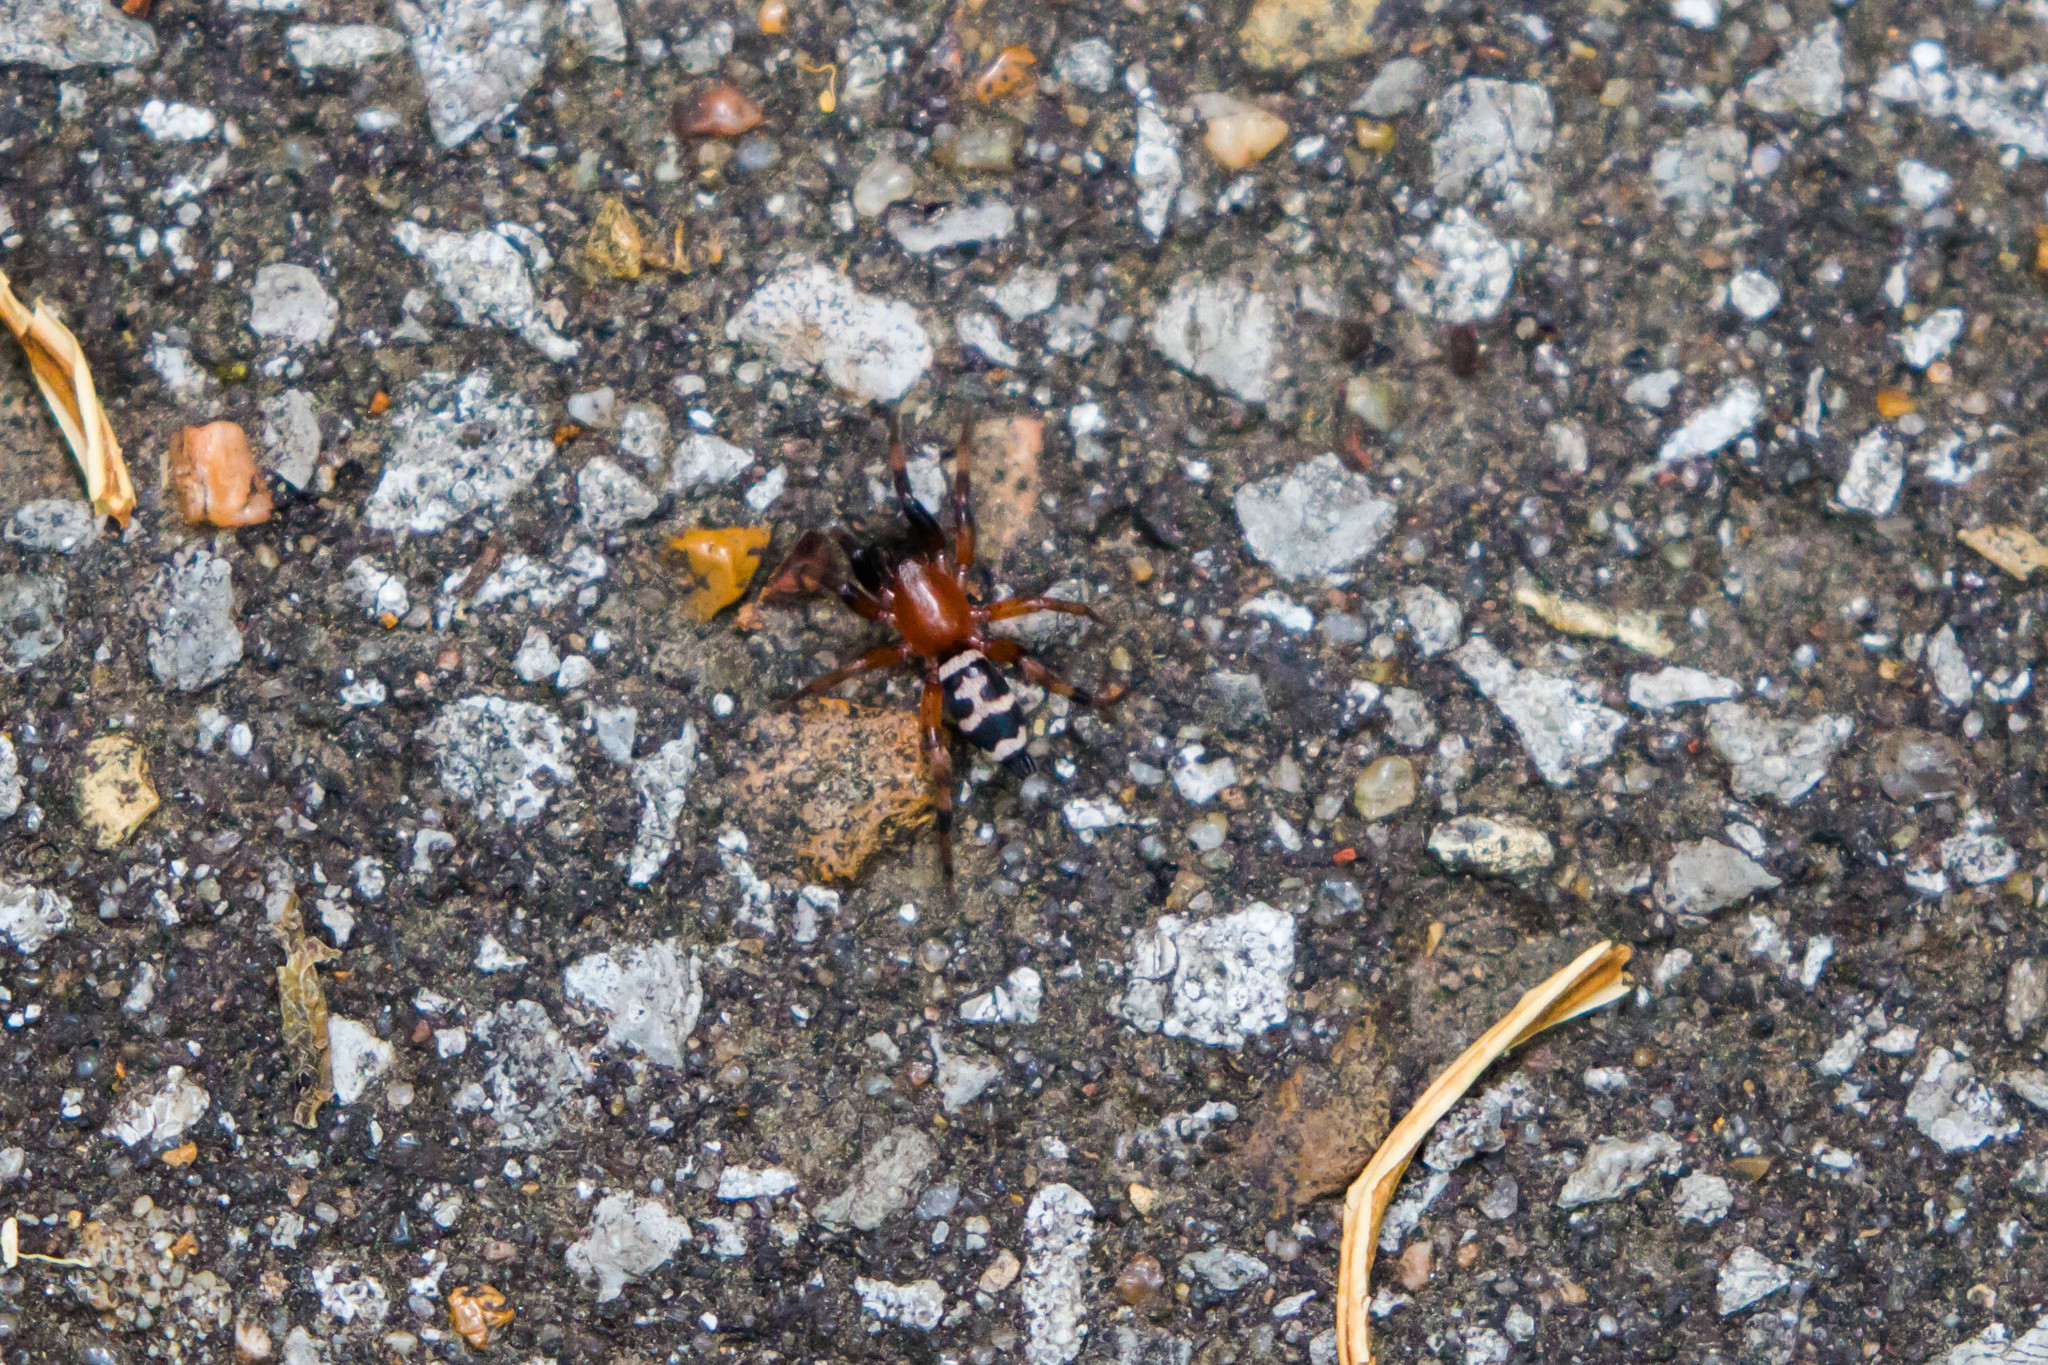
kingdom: Animalia
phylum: Arthropoda
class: Arachnida
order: Araneae
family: Gnaphosidae
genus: Sergiolus
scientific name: Sergiolus capulatus
